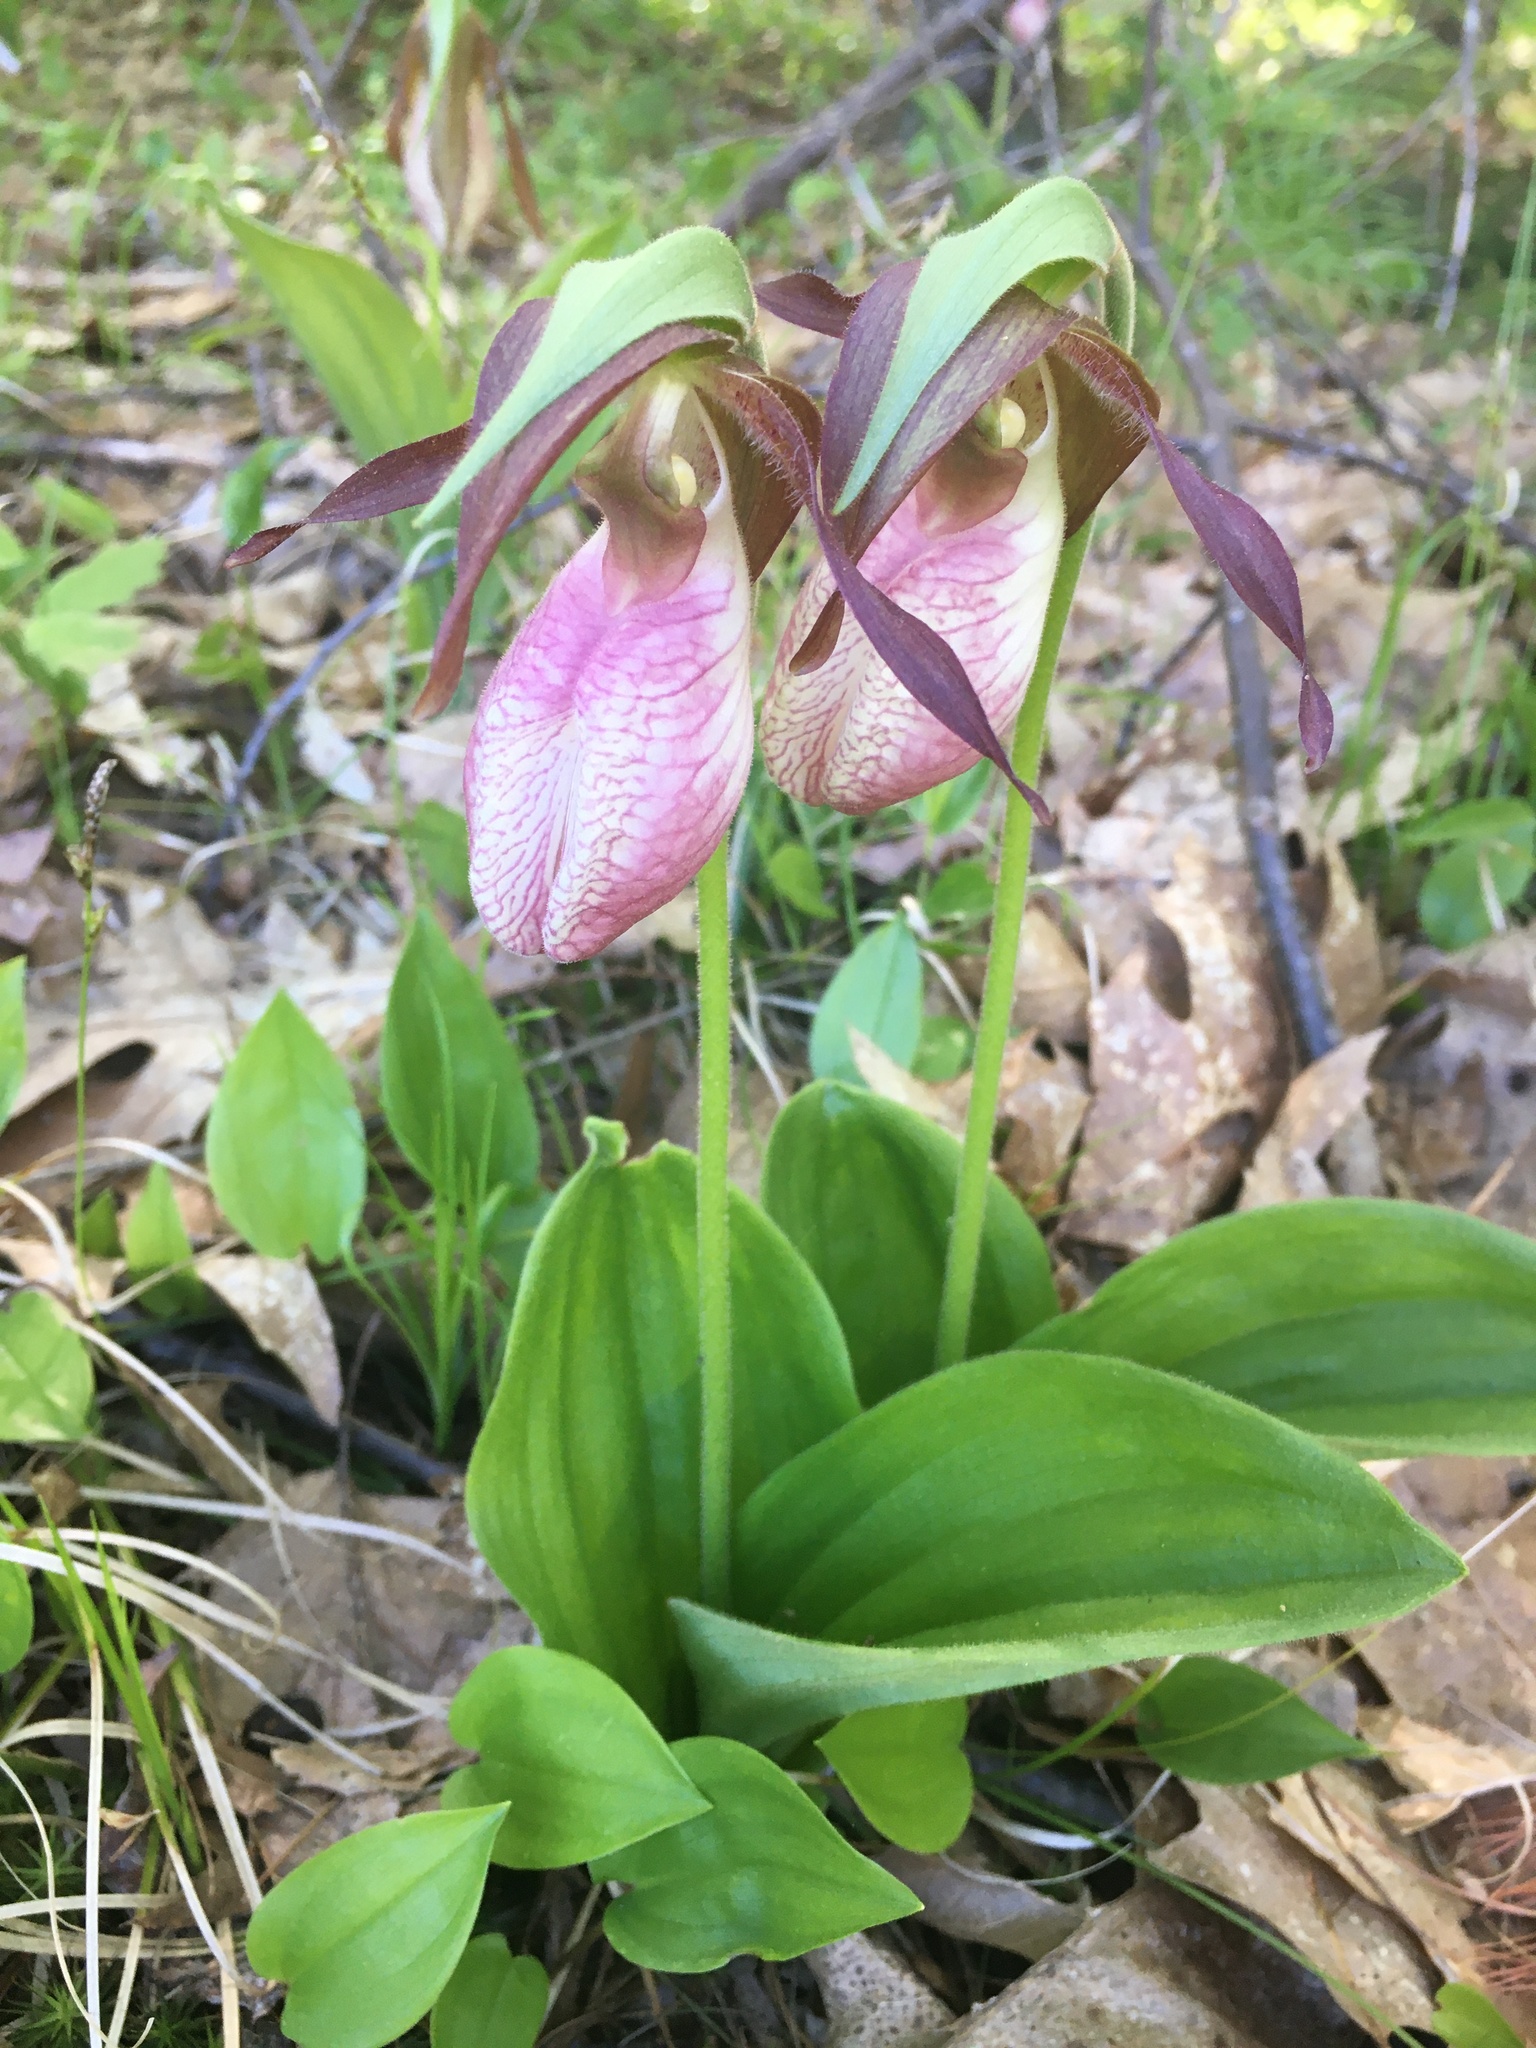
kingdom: Plantae
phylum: Tracheophyta
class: Liliopsida
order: Asparagales
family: Orchidaceae
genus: Cypripedium
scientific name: Cypripedium acaule
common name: Pink lady's-slipper
